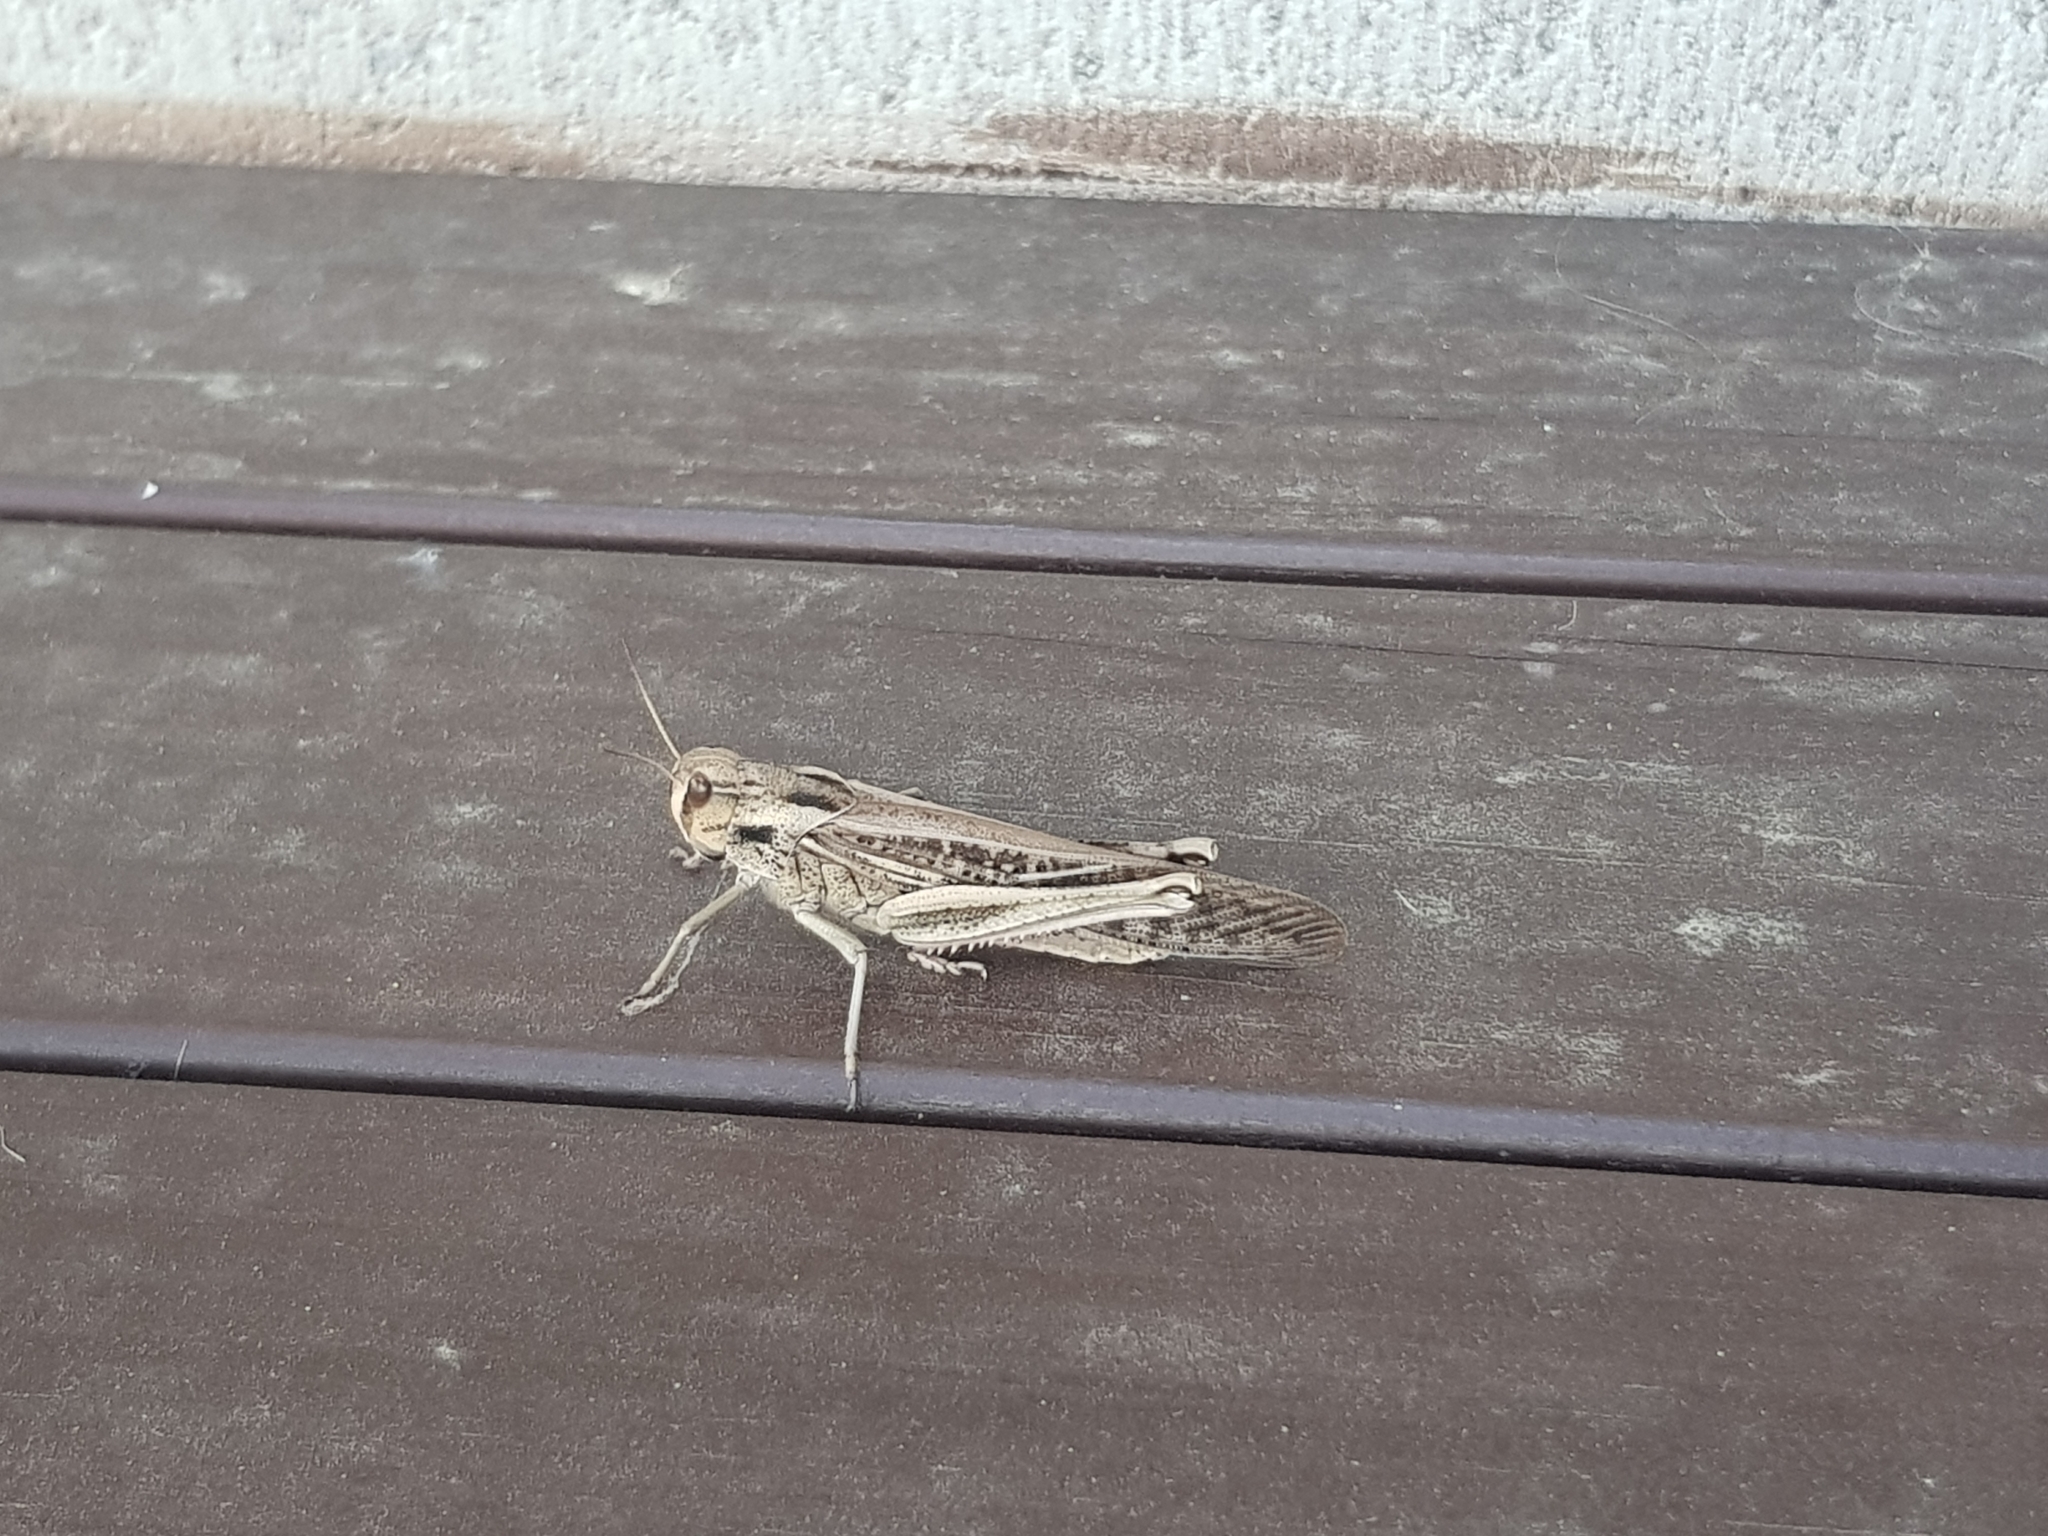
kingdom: Animalia
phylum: Arthropoda
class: Insecta
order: Orthoptera
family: Acrididae
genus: Locusta
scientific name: Locusta migratoria
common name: Migratory locust
